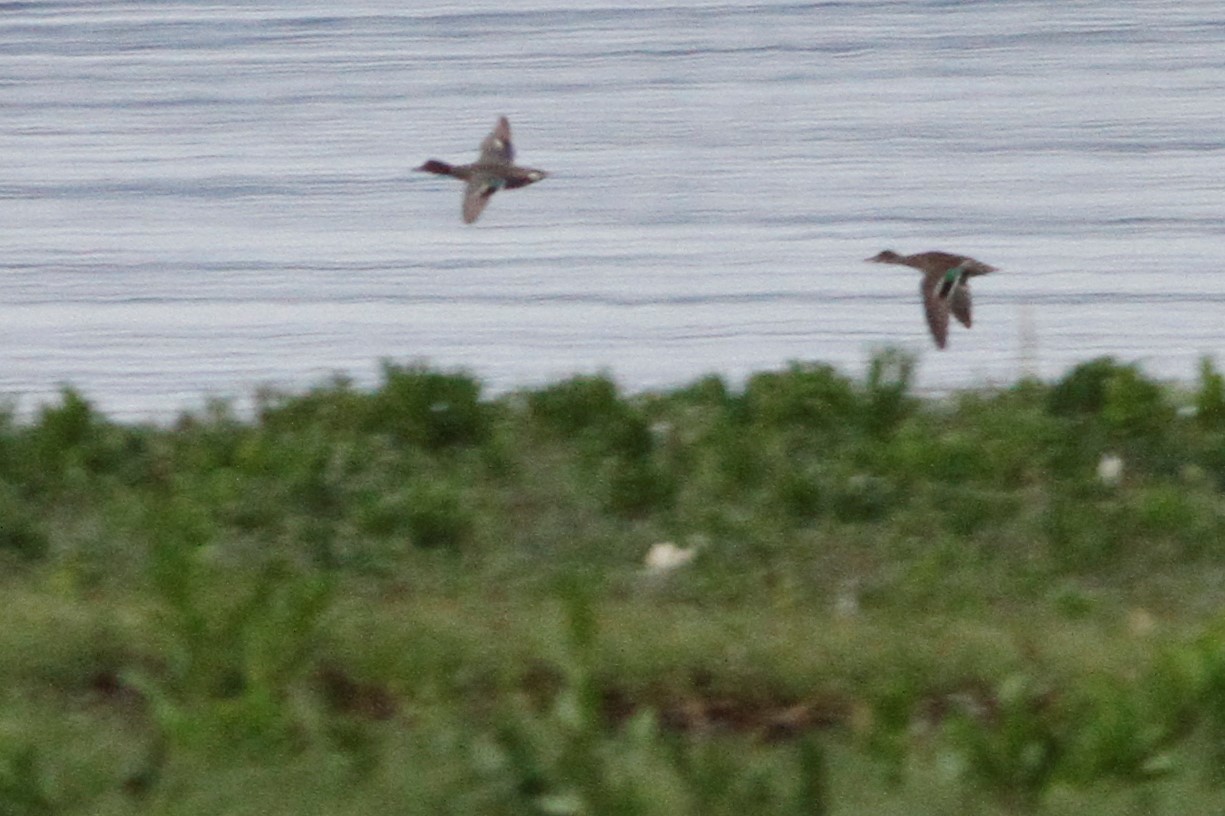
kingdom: Animalia
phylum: Chordata
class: Aves
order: Anseriformes
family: Anatidae
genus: Anas
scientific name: Anas crecca
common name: Eurasian teal
